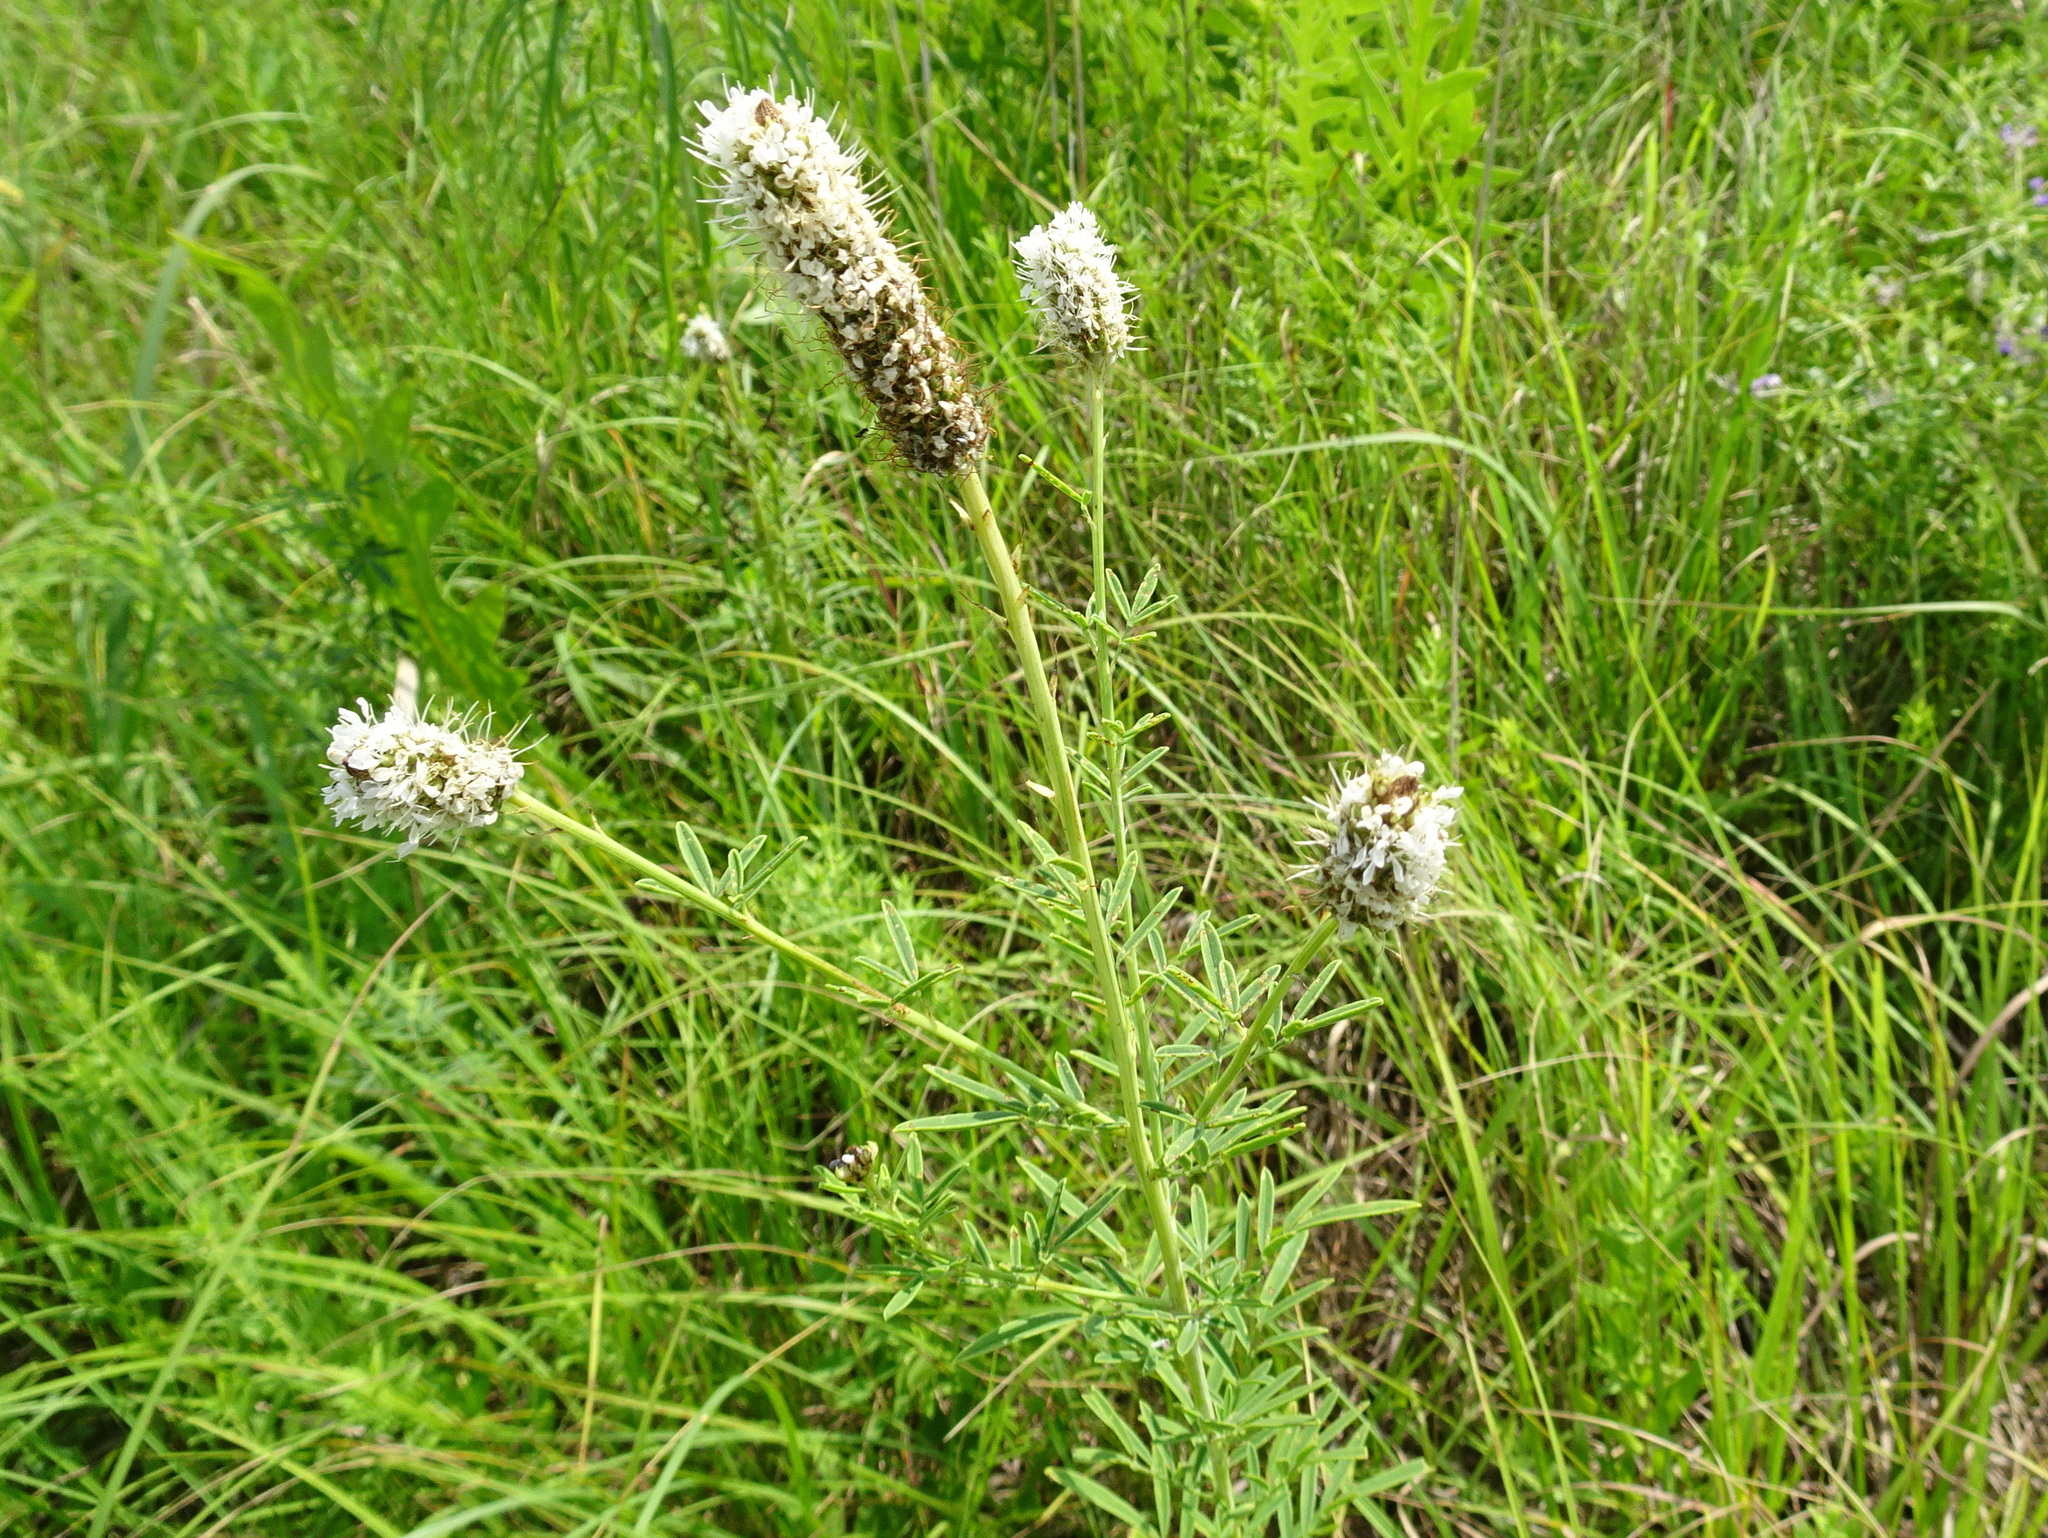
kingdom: Plantae
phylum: Tracheophyta
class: Magnoliopsida
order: Fabales
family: Fabaceae
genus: Dalea
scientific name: Dalea candida
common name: White prairie-clover
